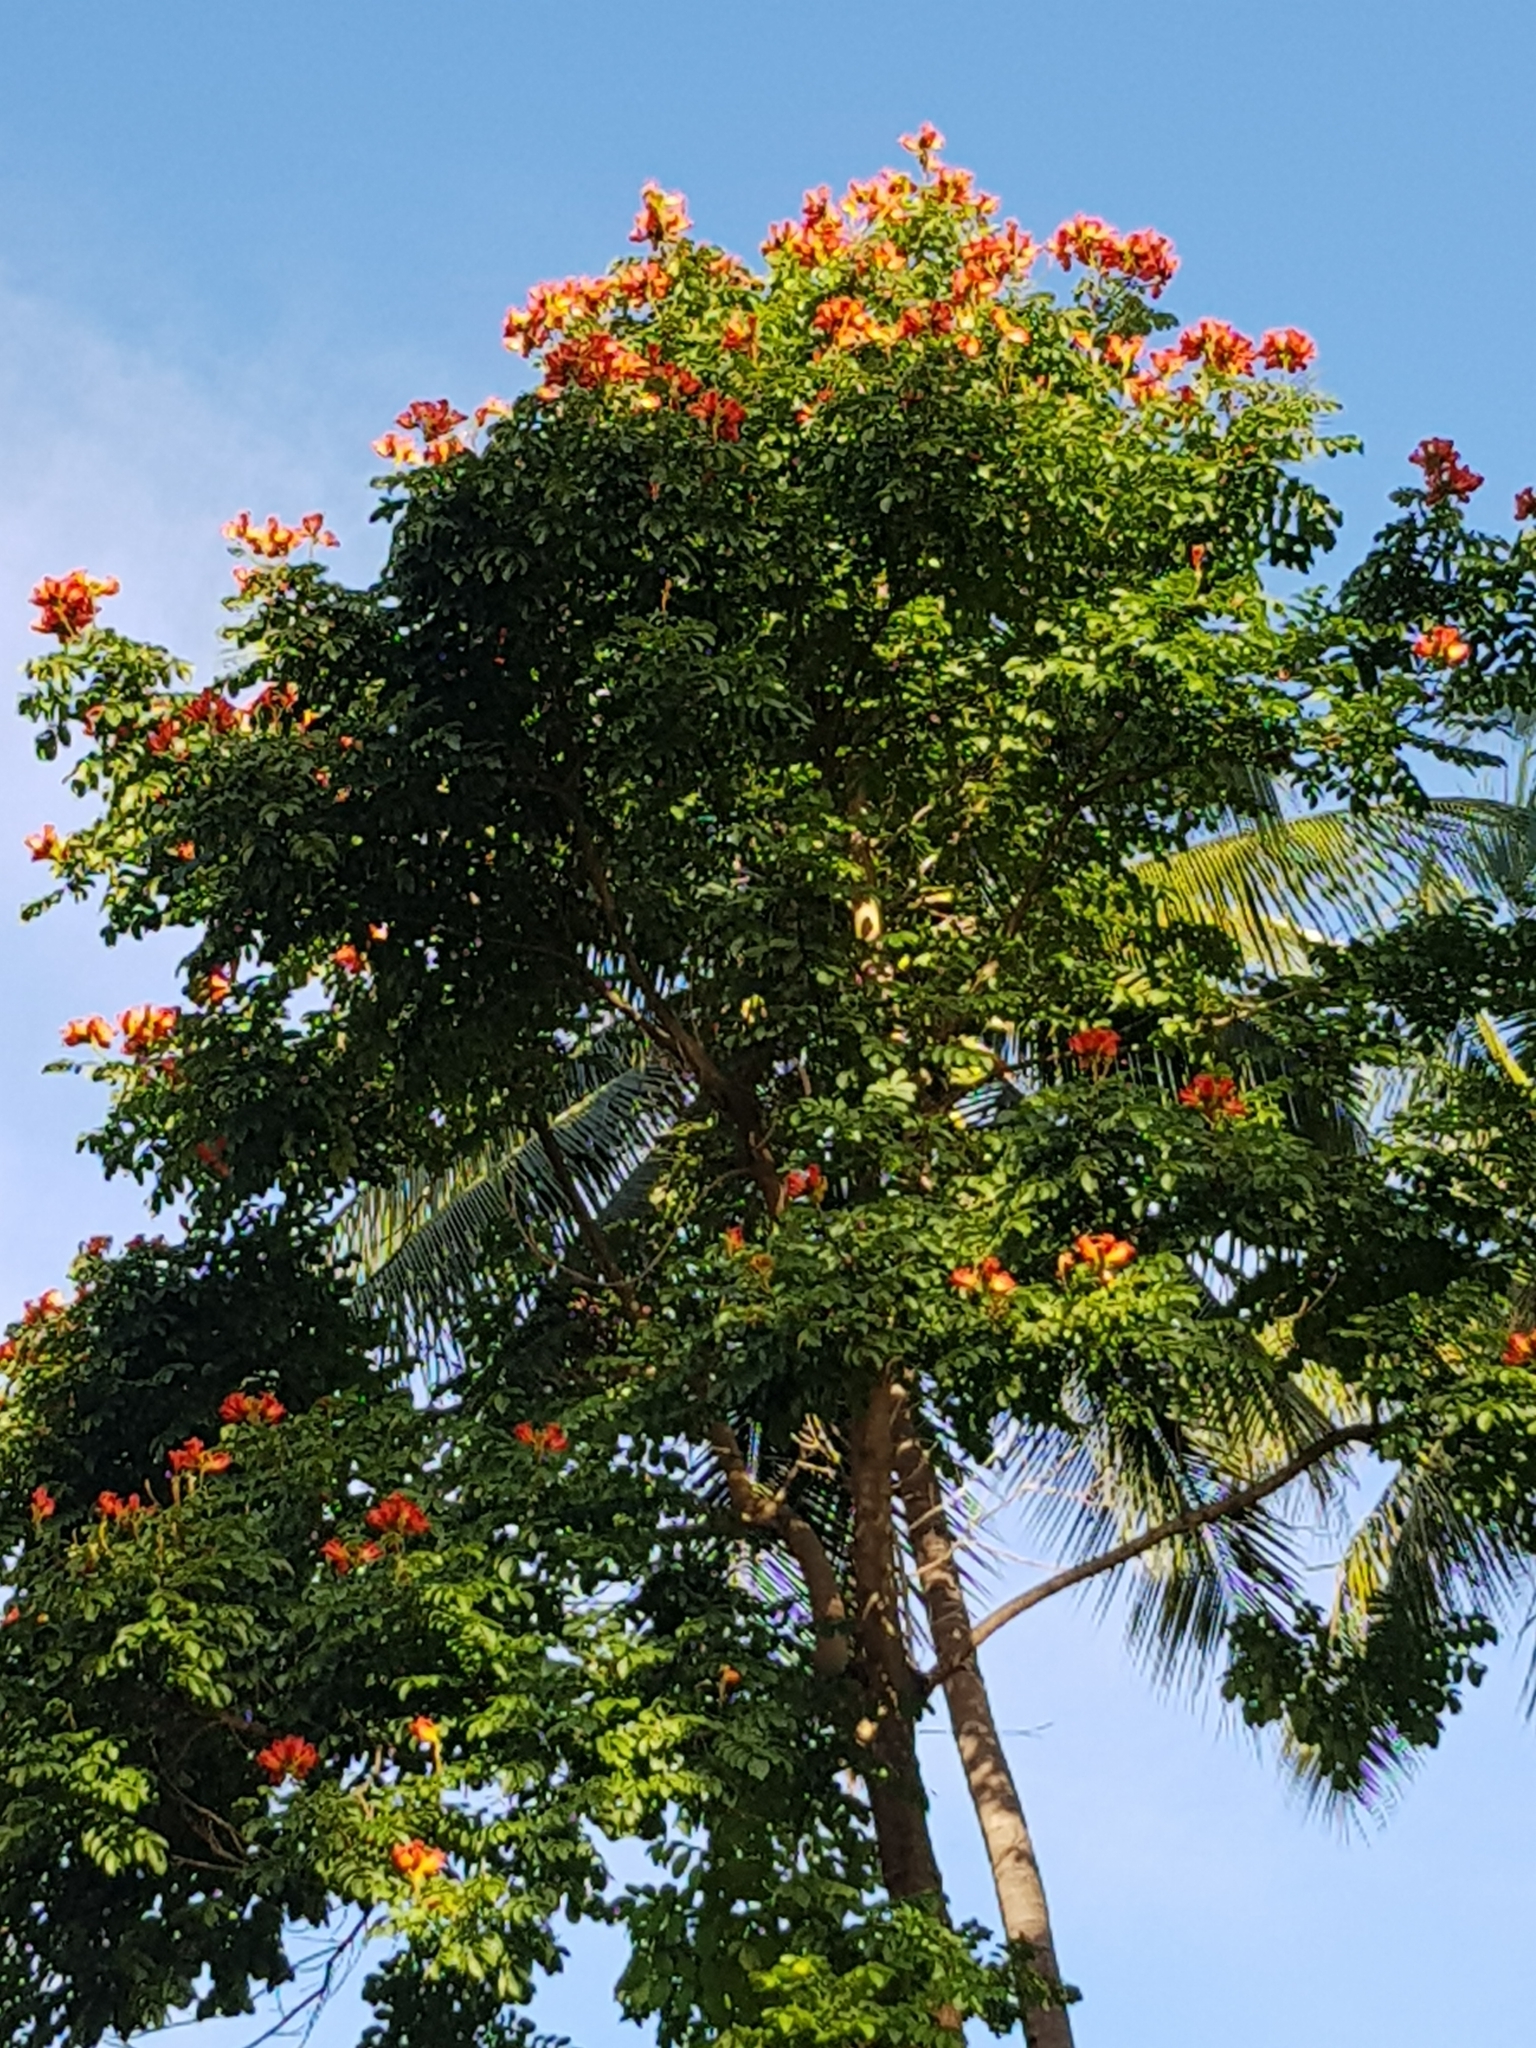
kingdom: Plantae
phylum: Tracheophyta
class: Magnoliopsida
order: Lamiales
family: Bignoniaceae
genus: Spathodea
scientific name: Spathodea campanulata
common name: African tuliptree
